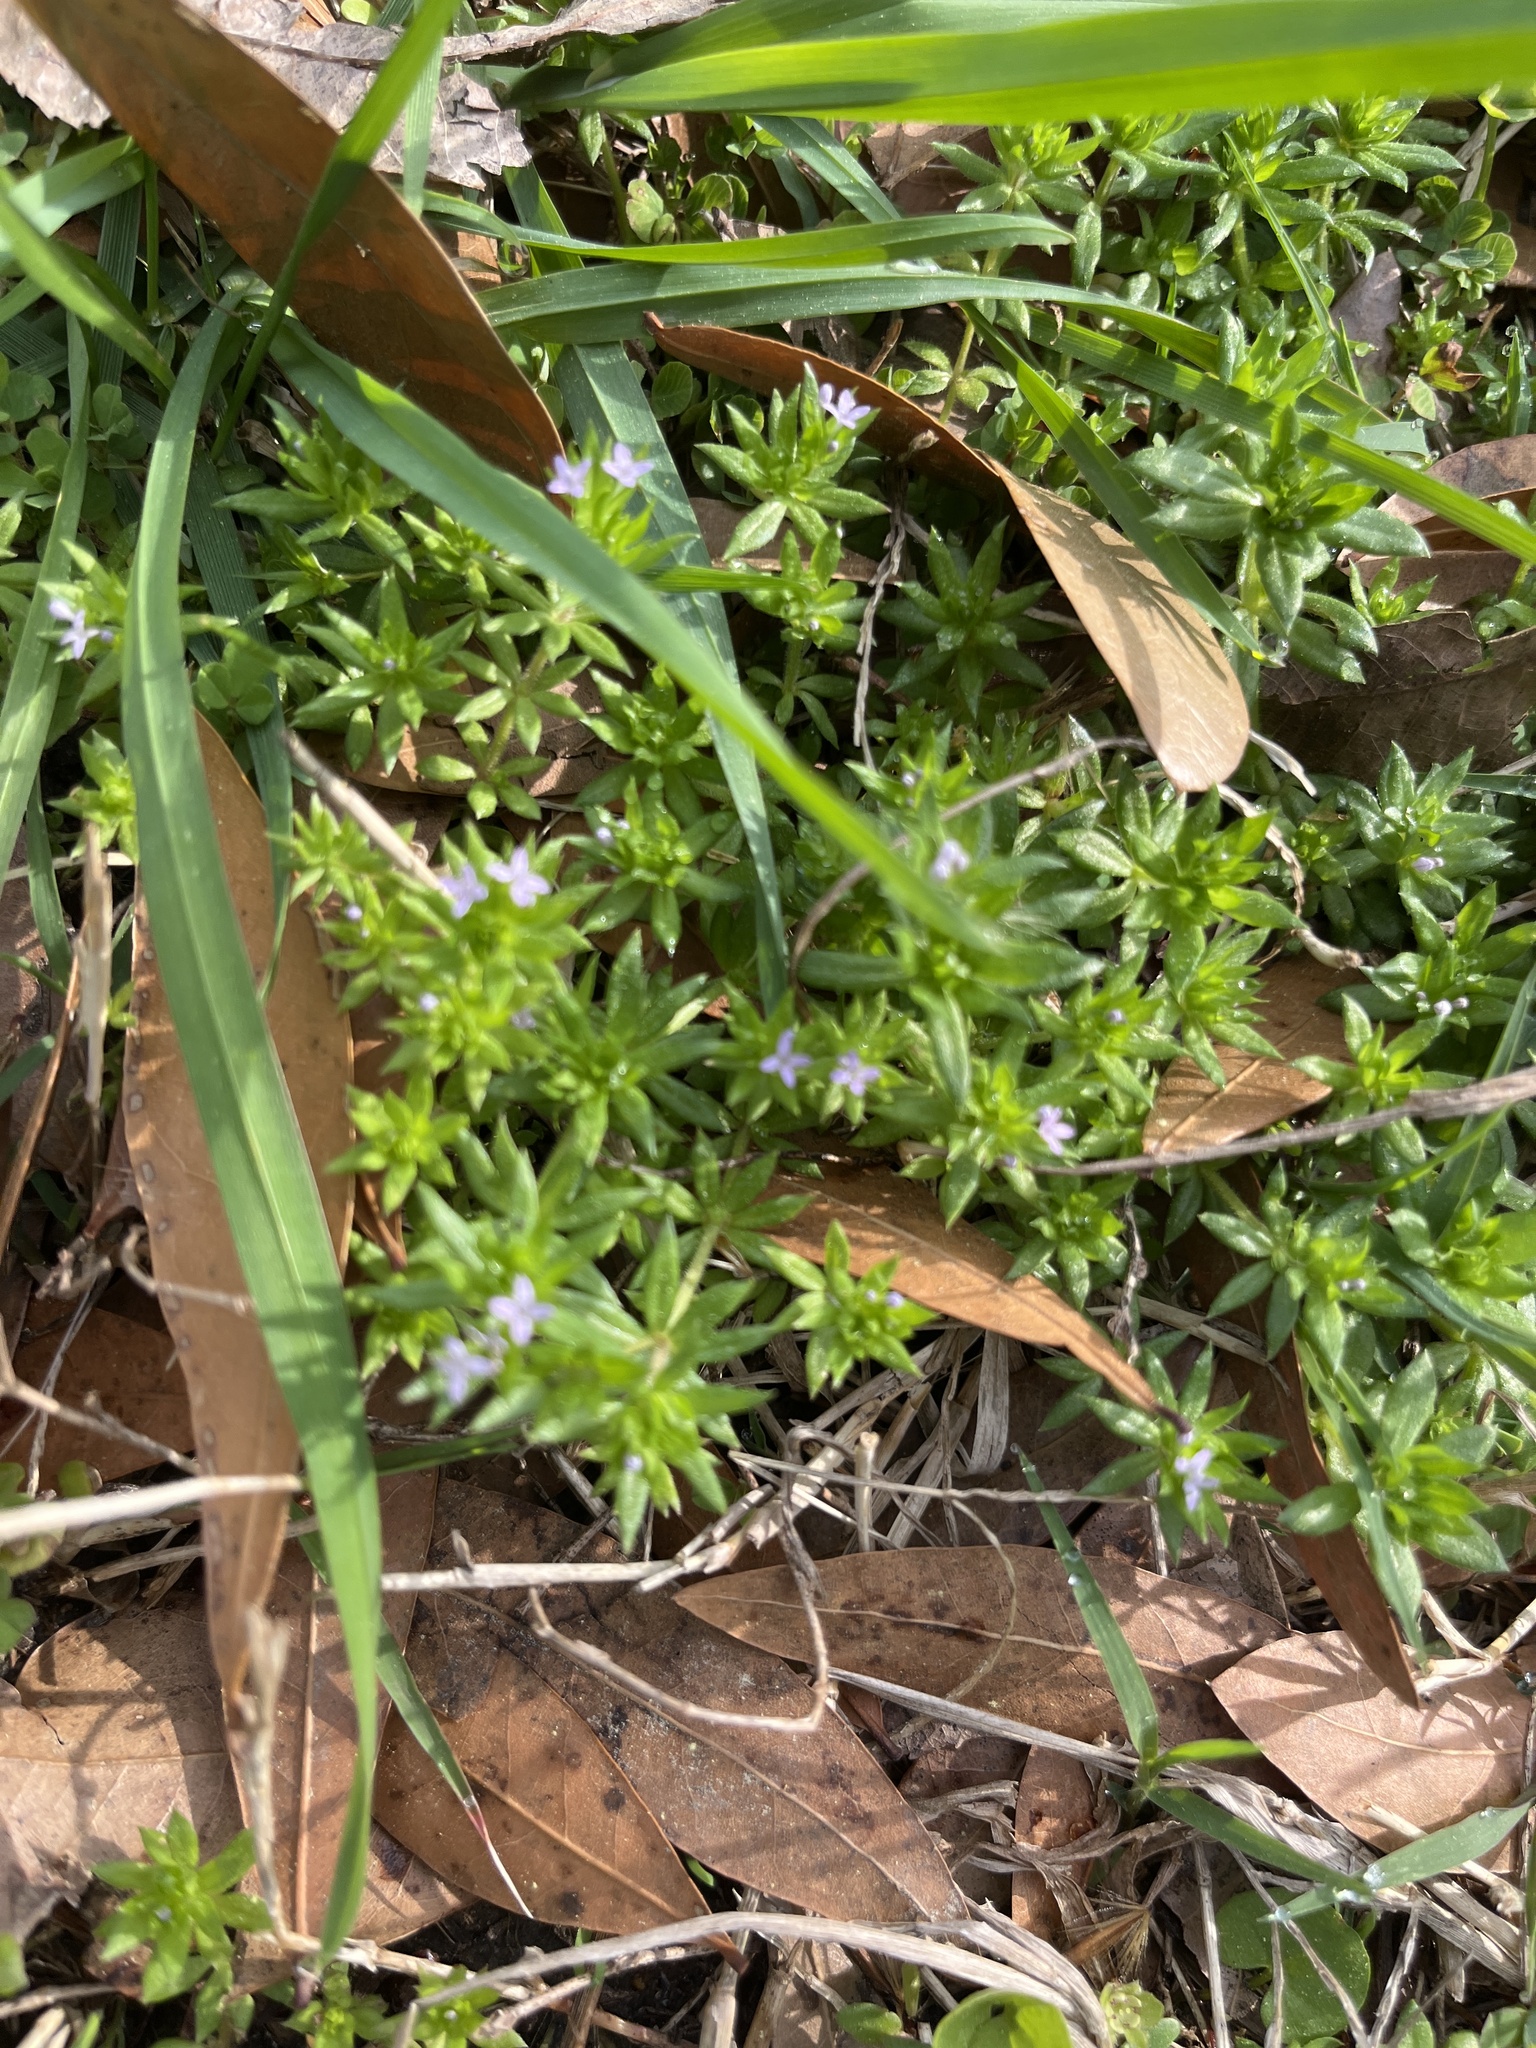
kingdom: Plantae
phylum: Tracheophyta
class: Magnoliopsida
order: Gentianales
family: Rubiaceae
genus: Sherardia
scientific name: Sherardia arvensis
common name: Field madder
